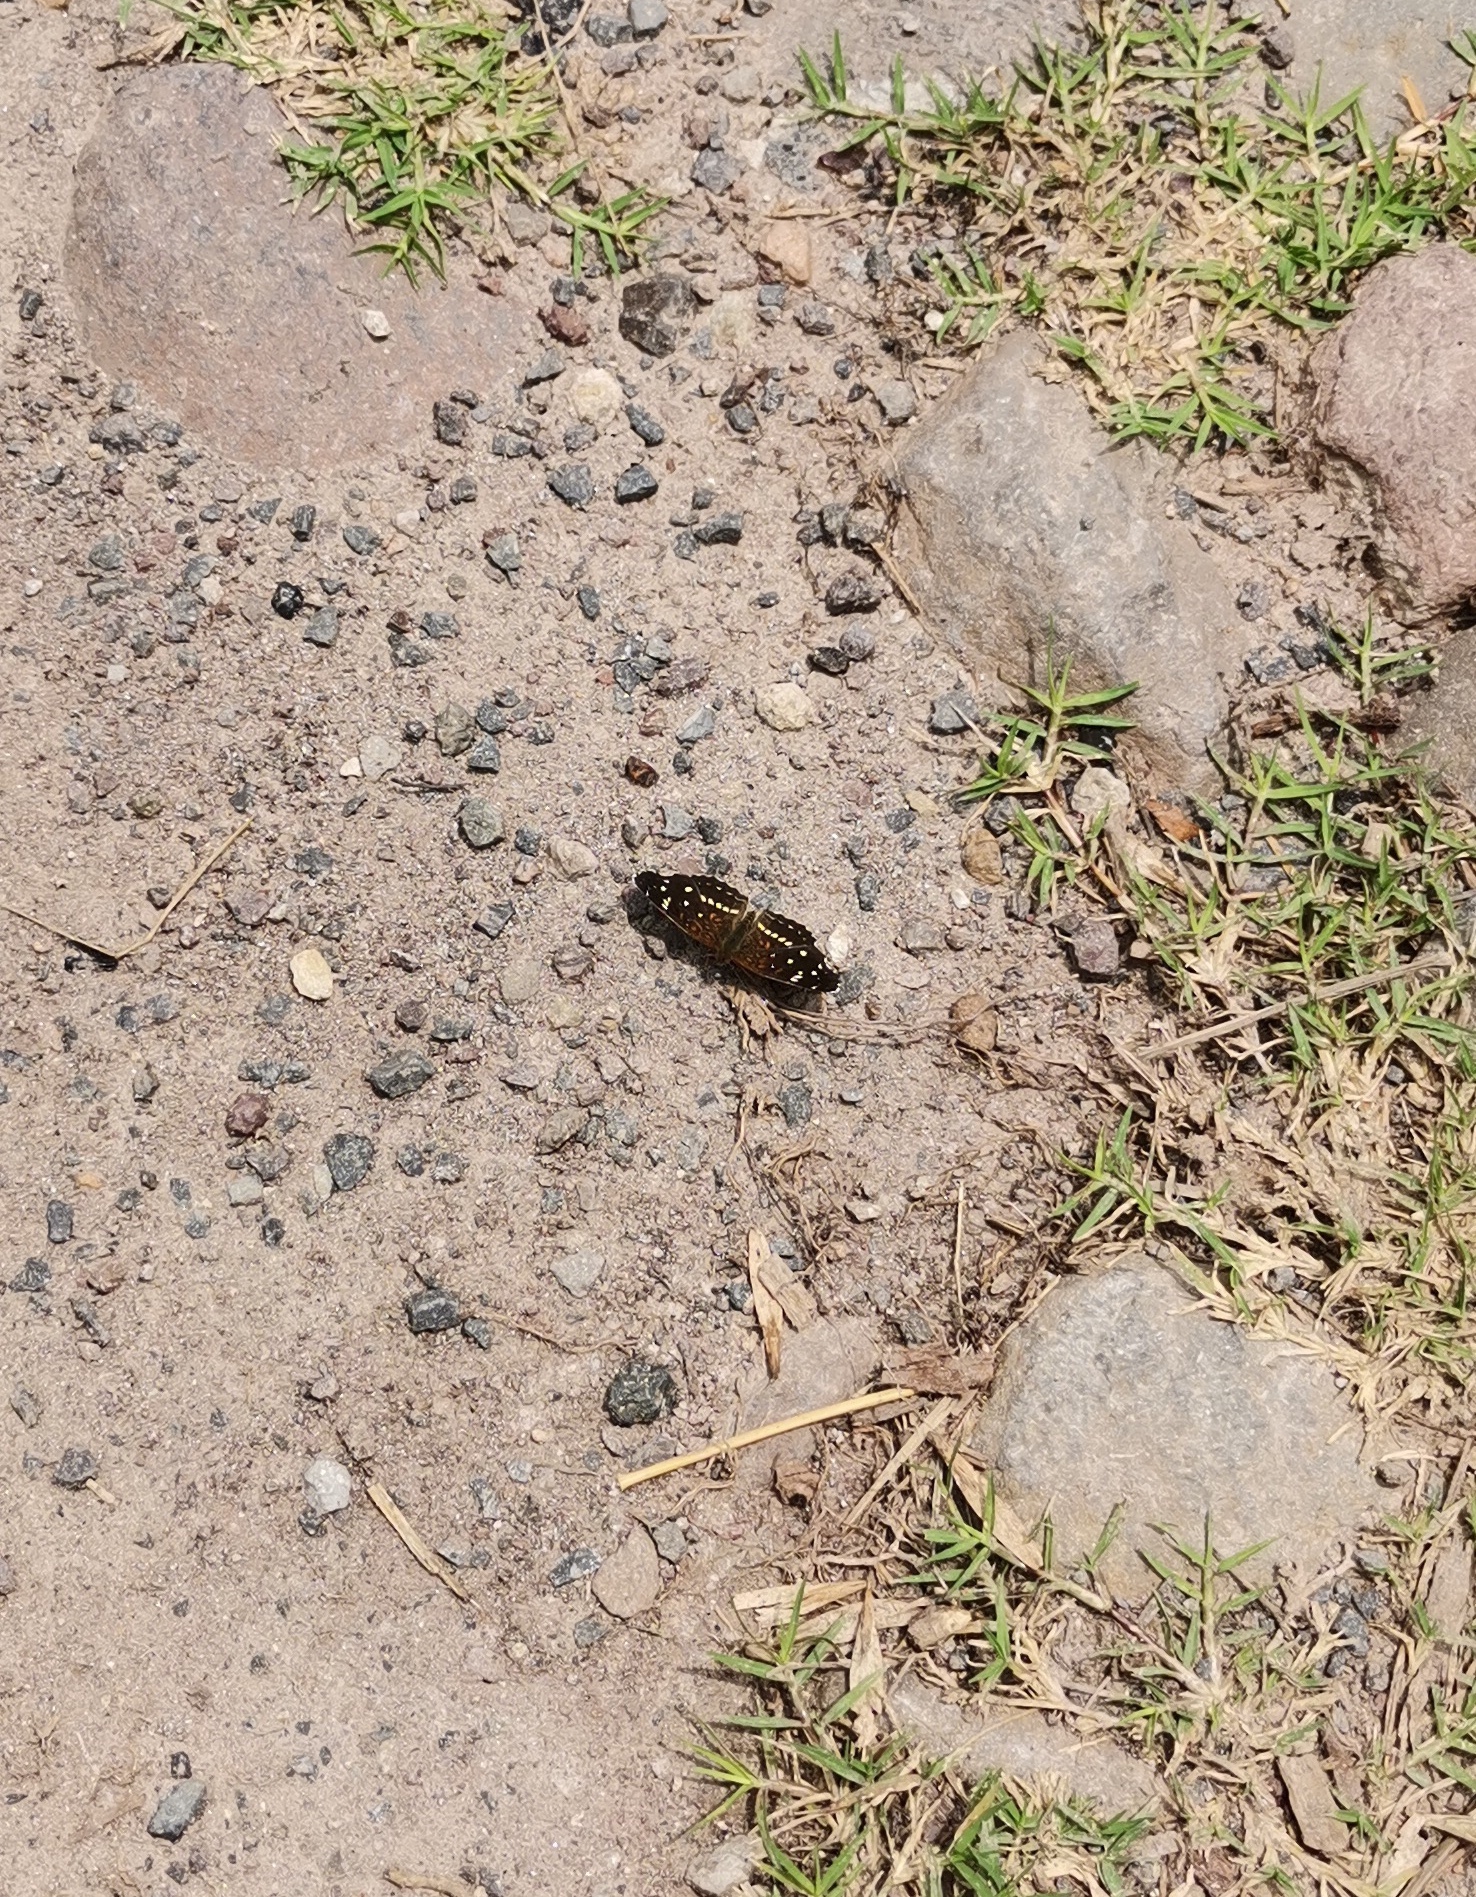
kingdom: Animalia
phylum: Arthropoda
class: Insecta
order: Lepidoptera
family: Nymphalidae
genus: Anthanassa
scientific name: Anthanassa texana
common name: Texan crescent
